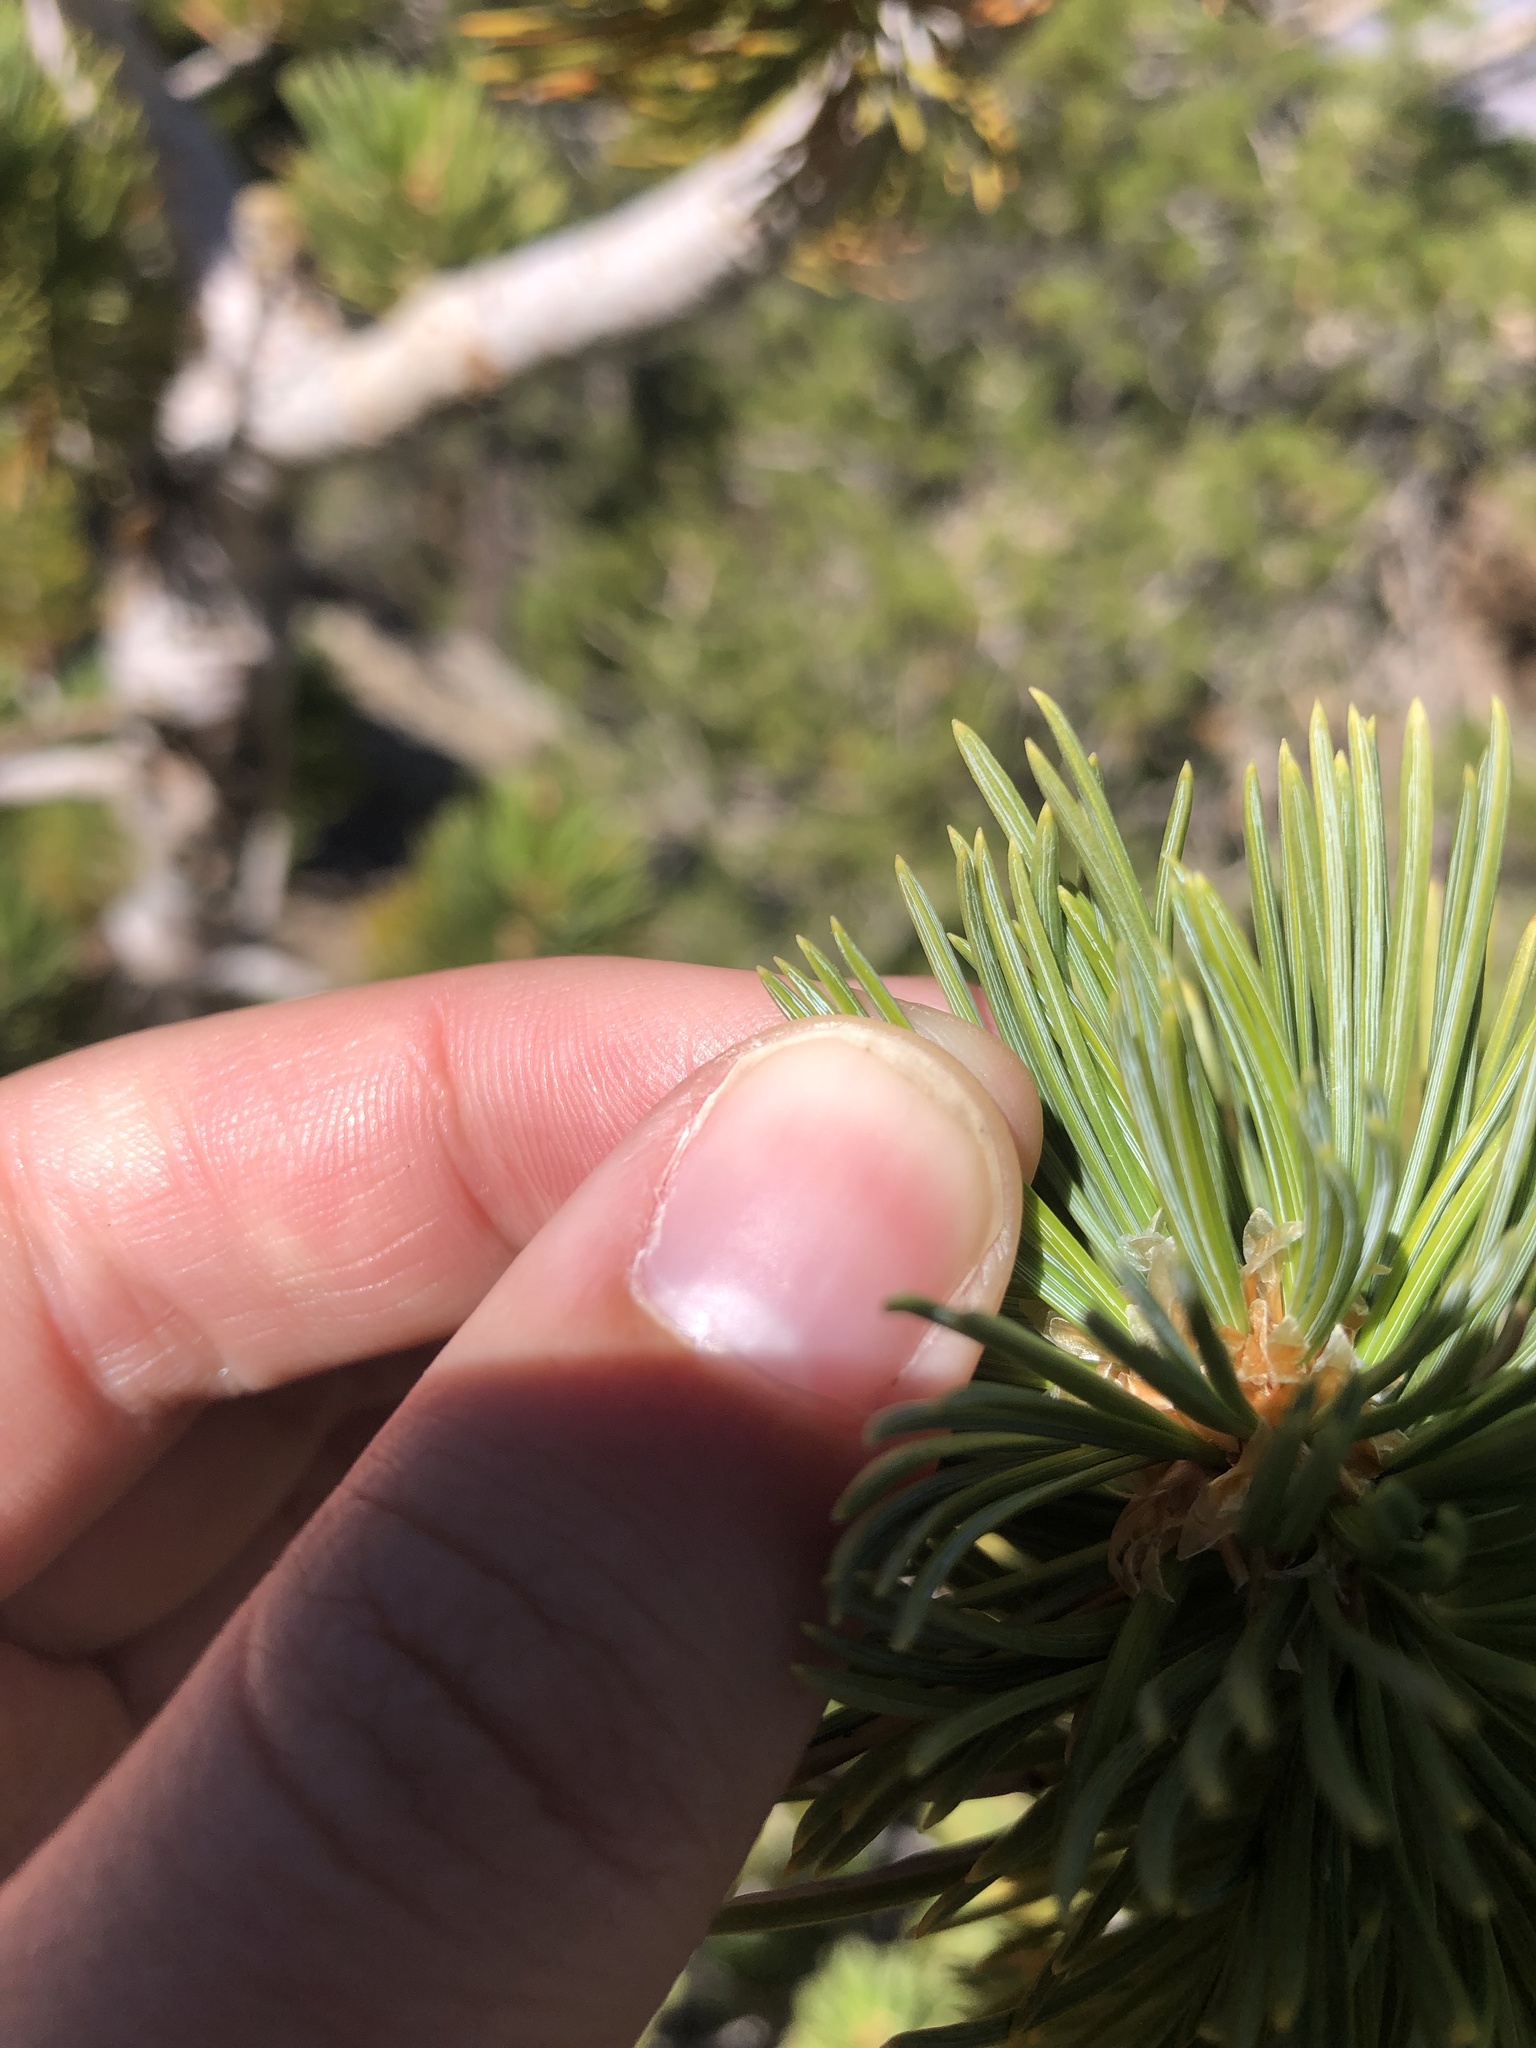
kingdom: Plantae
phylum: Tracheophyta
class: Pinopsida
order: Pinales
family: Pinaceae
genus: Pinus
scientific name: Pinus flexilis
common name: Limber pine
